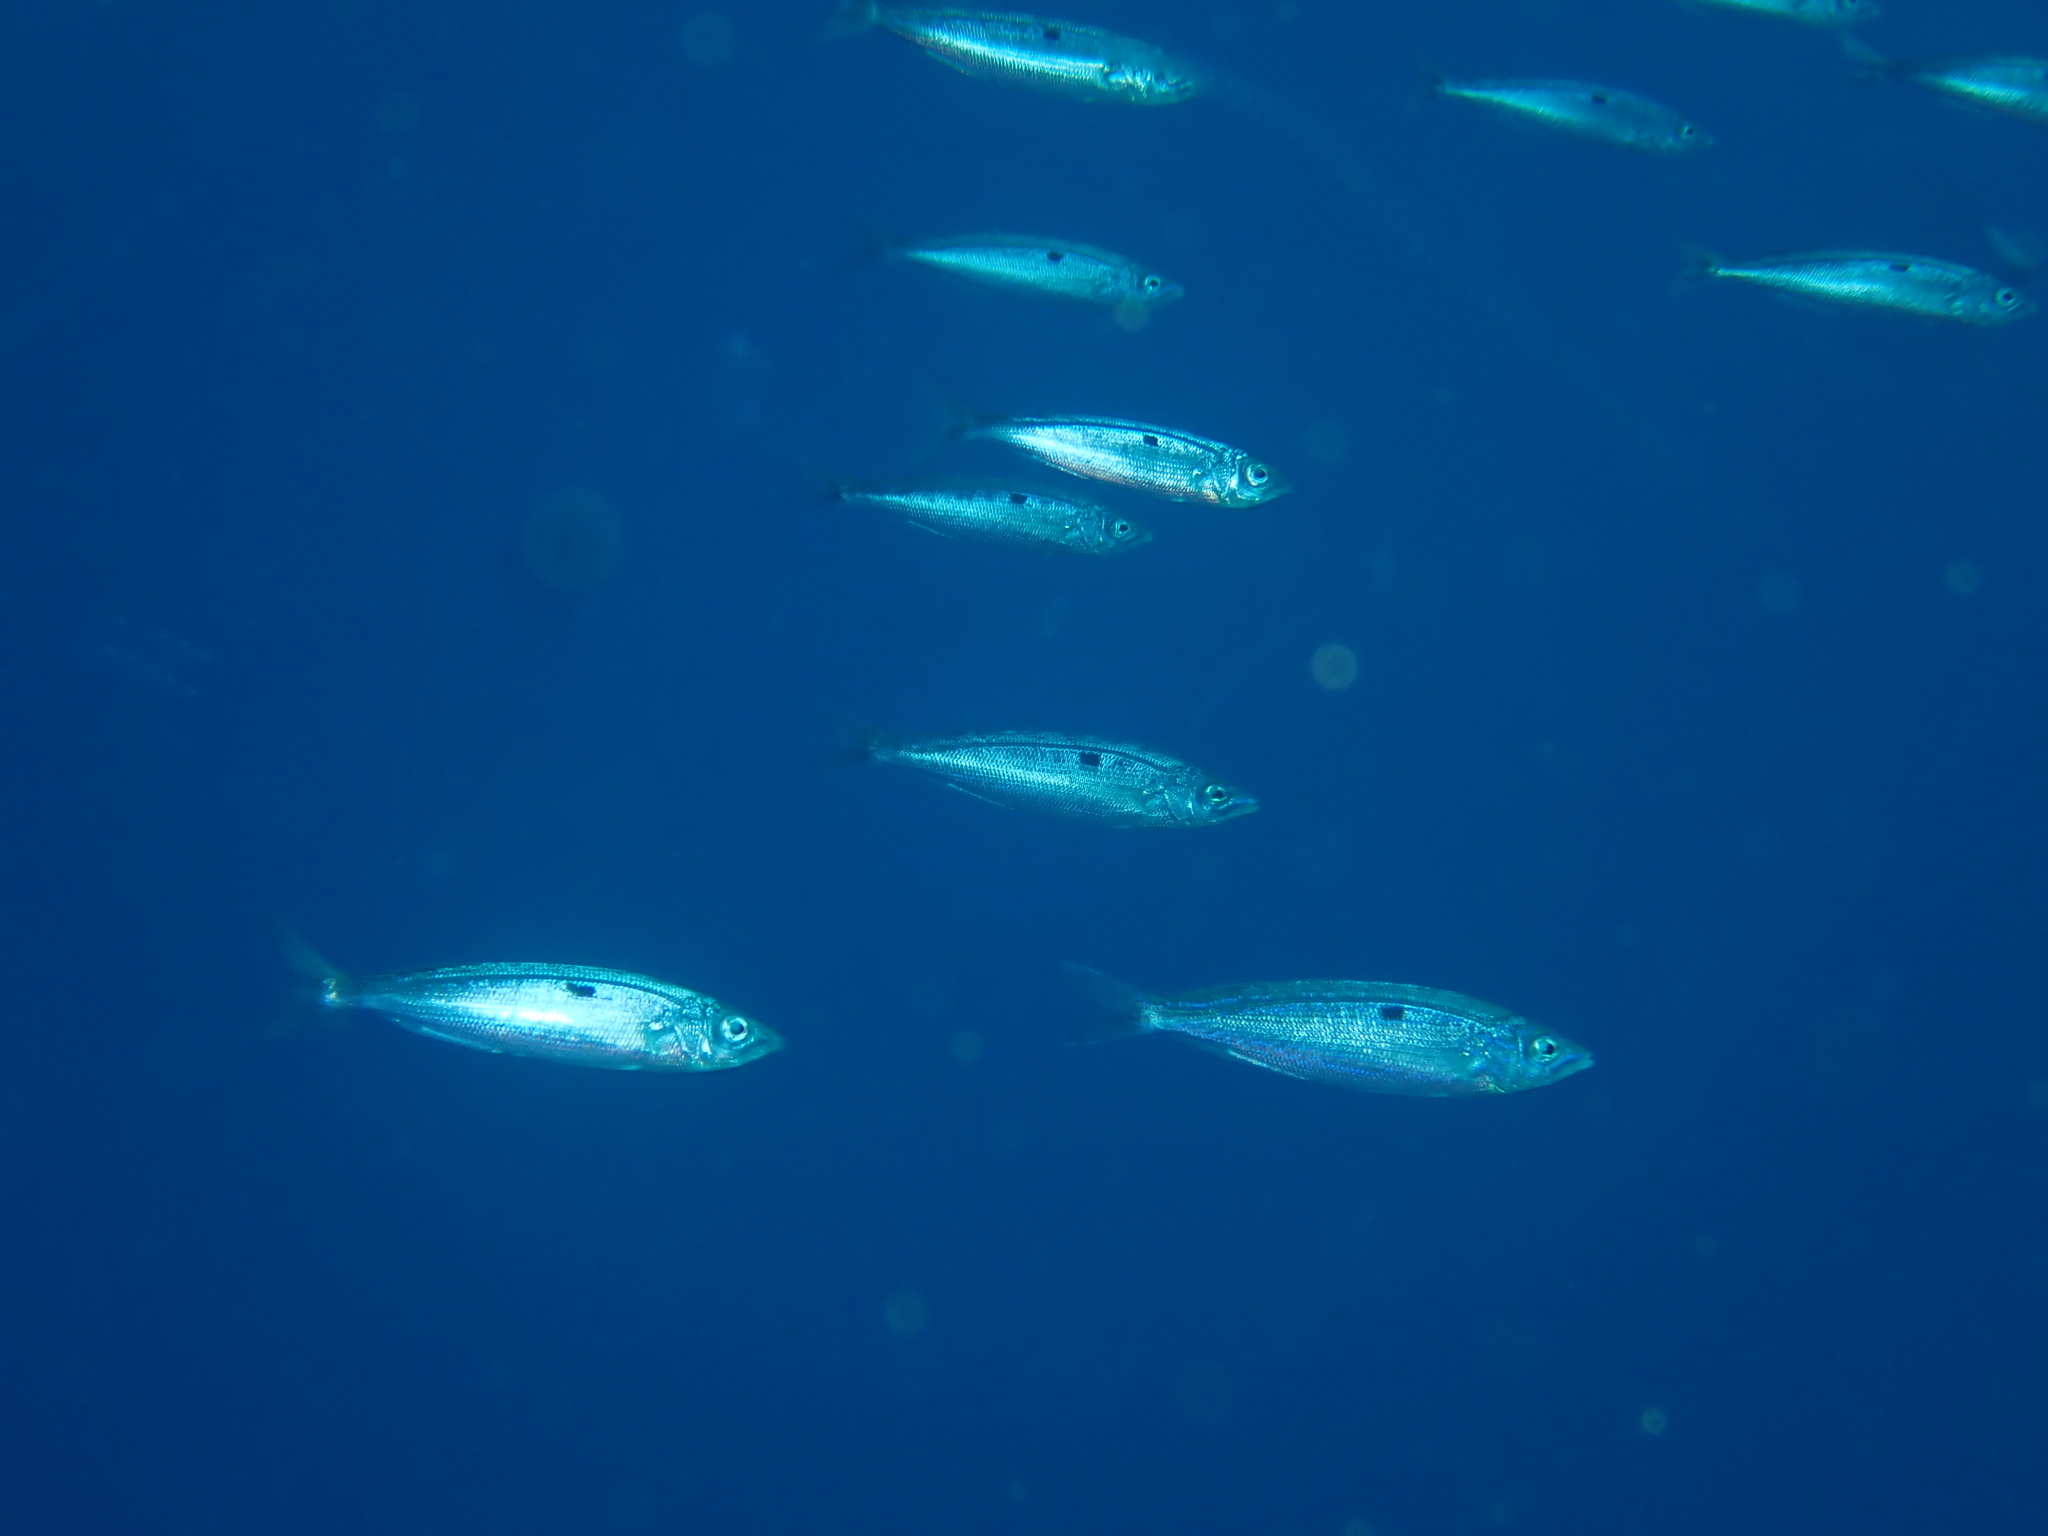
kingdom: Animalia
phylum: Chordata
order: Perciformes
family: Sparidae
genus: Spicara
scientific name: Spicara smaris
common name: Picarel
